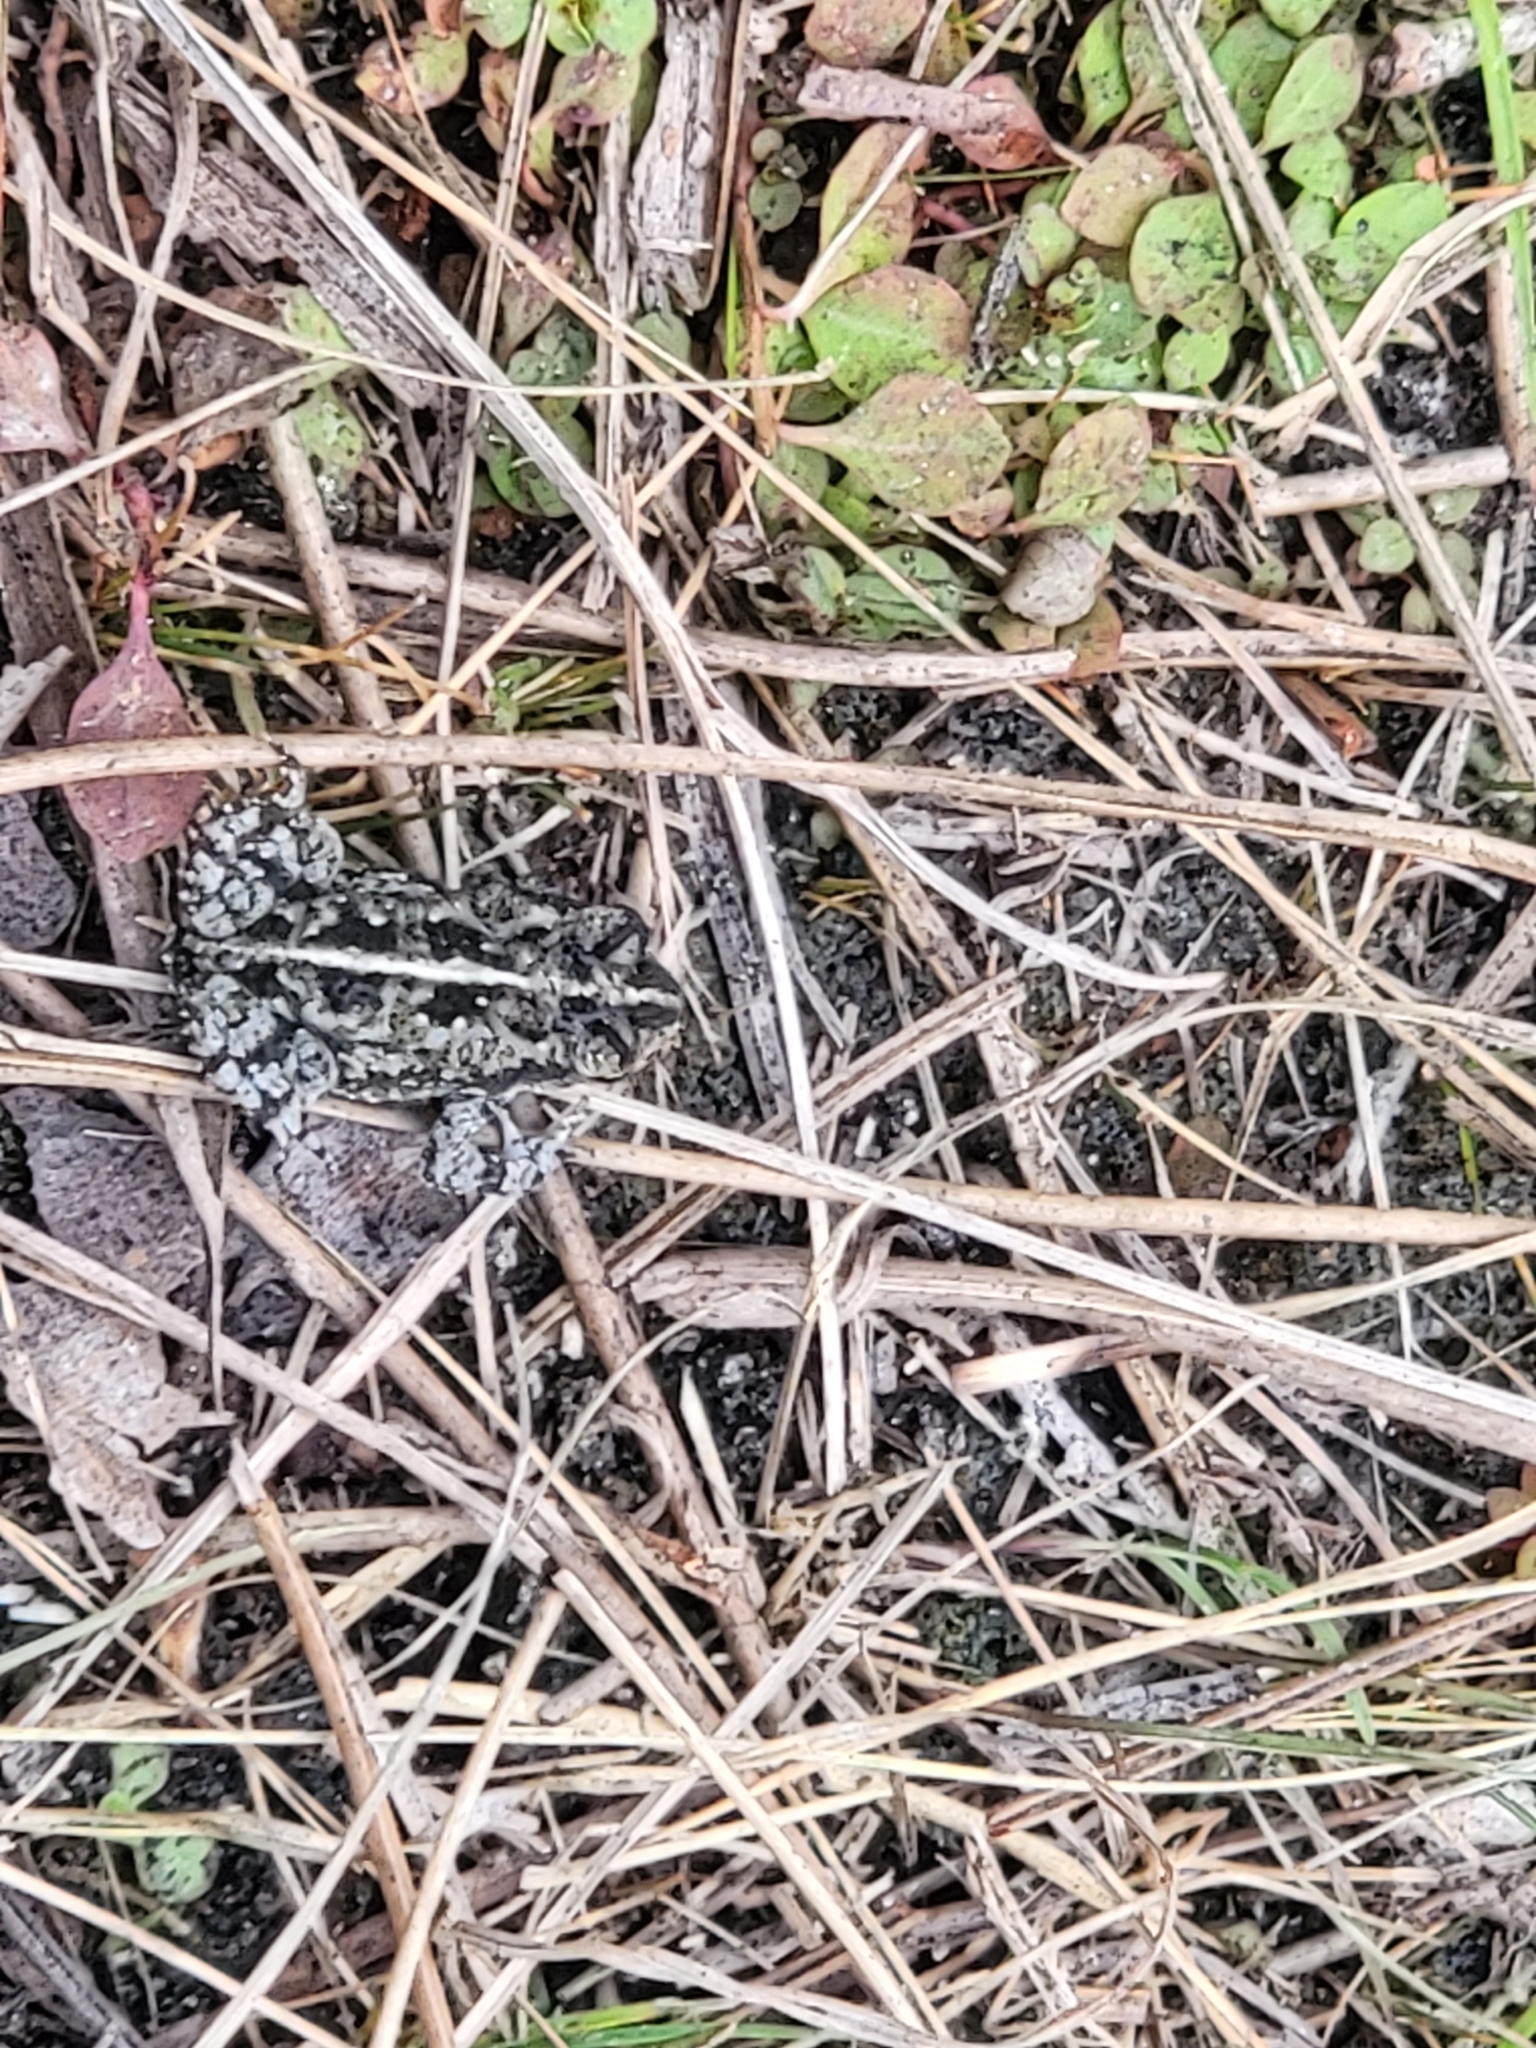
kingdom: Animalia
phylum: Chordata
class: Amphibia
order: Anura
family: Bufonidae
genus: Anaxyrus
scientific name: Anaxyrus quercicus
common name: Oak toad
